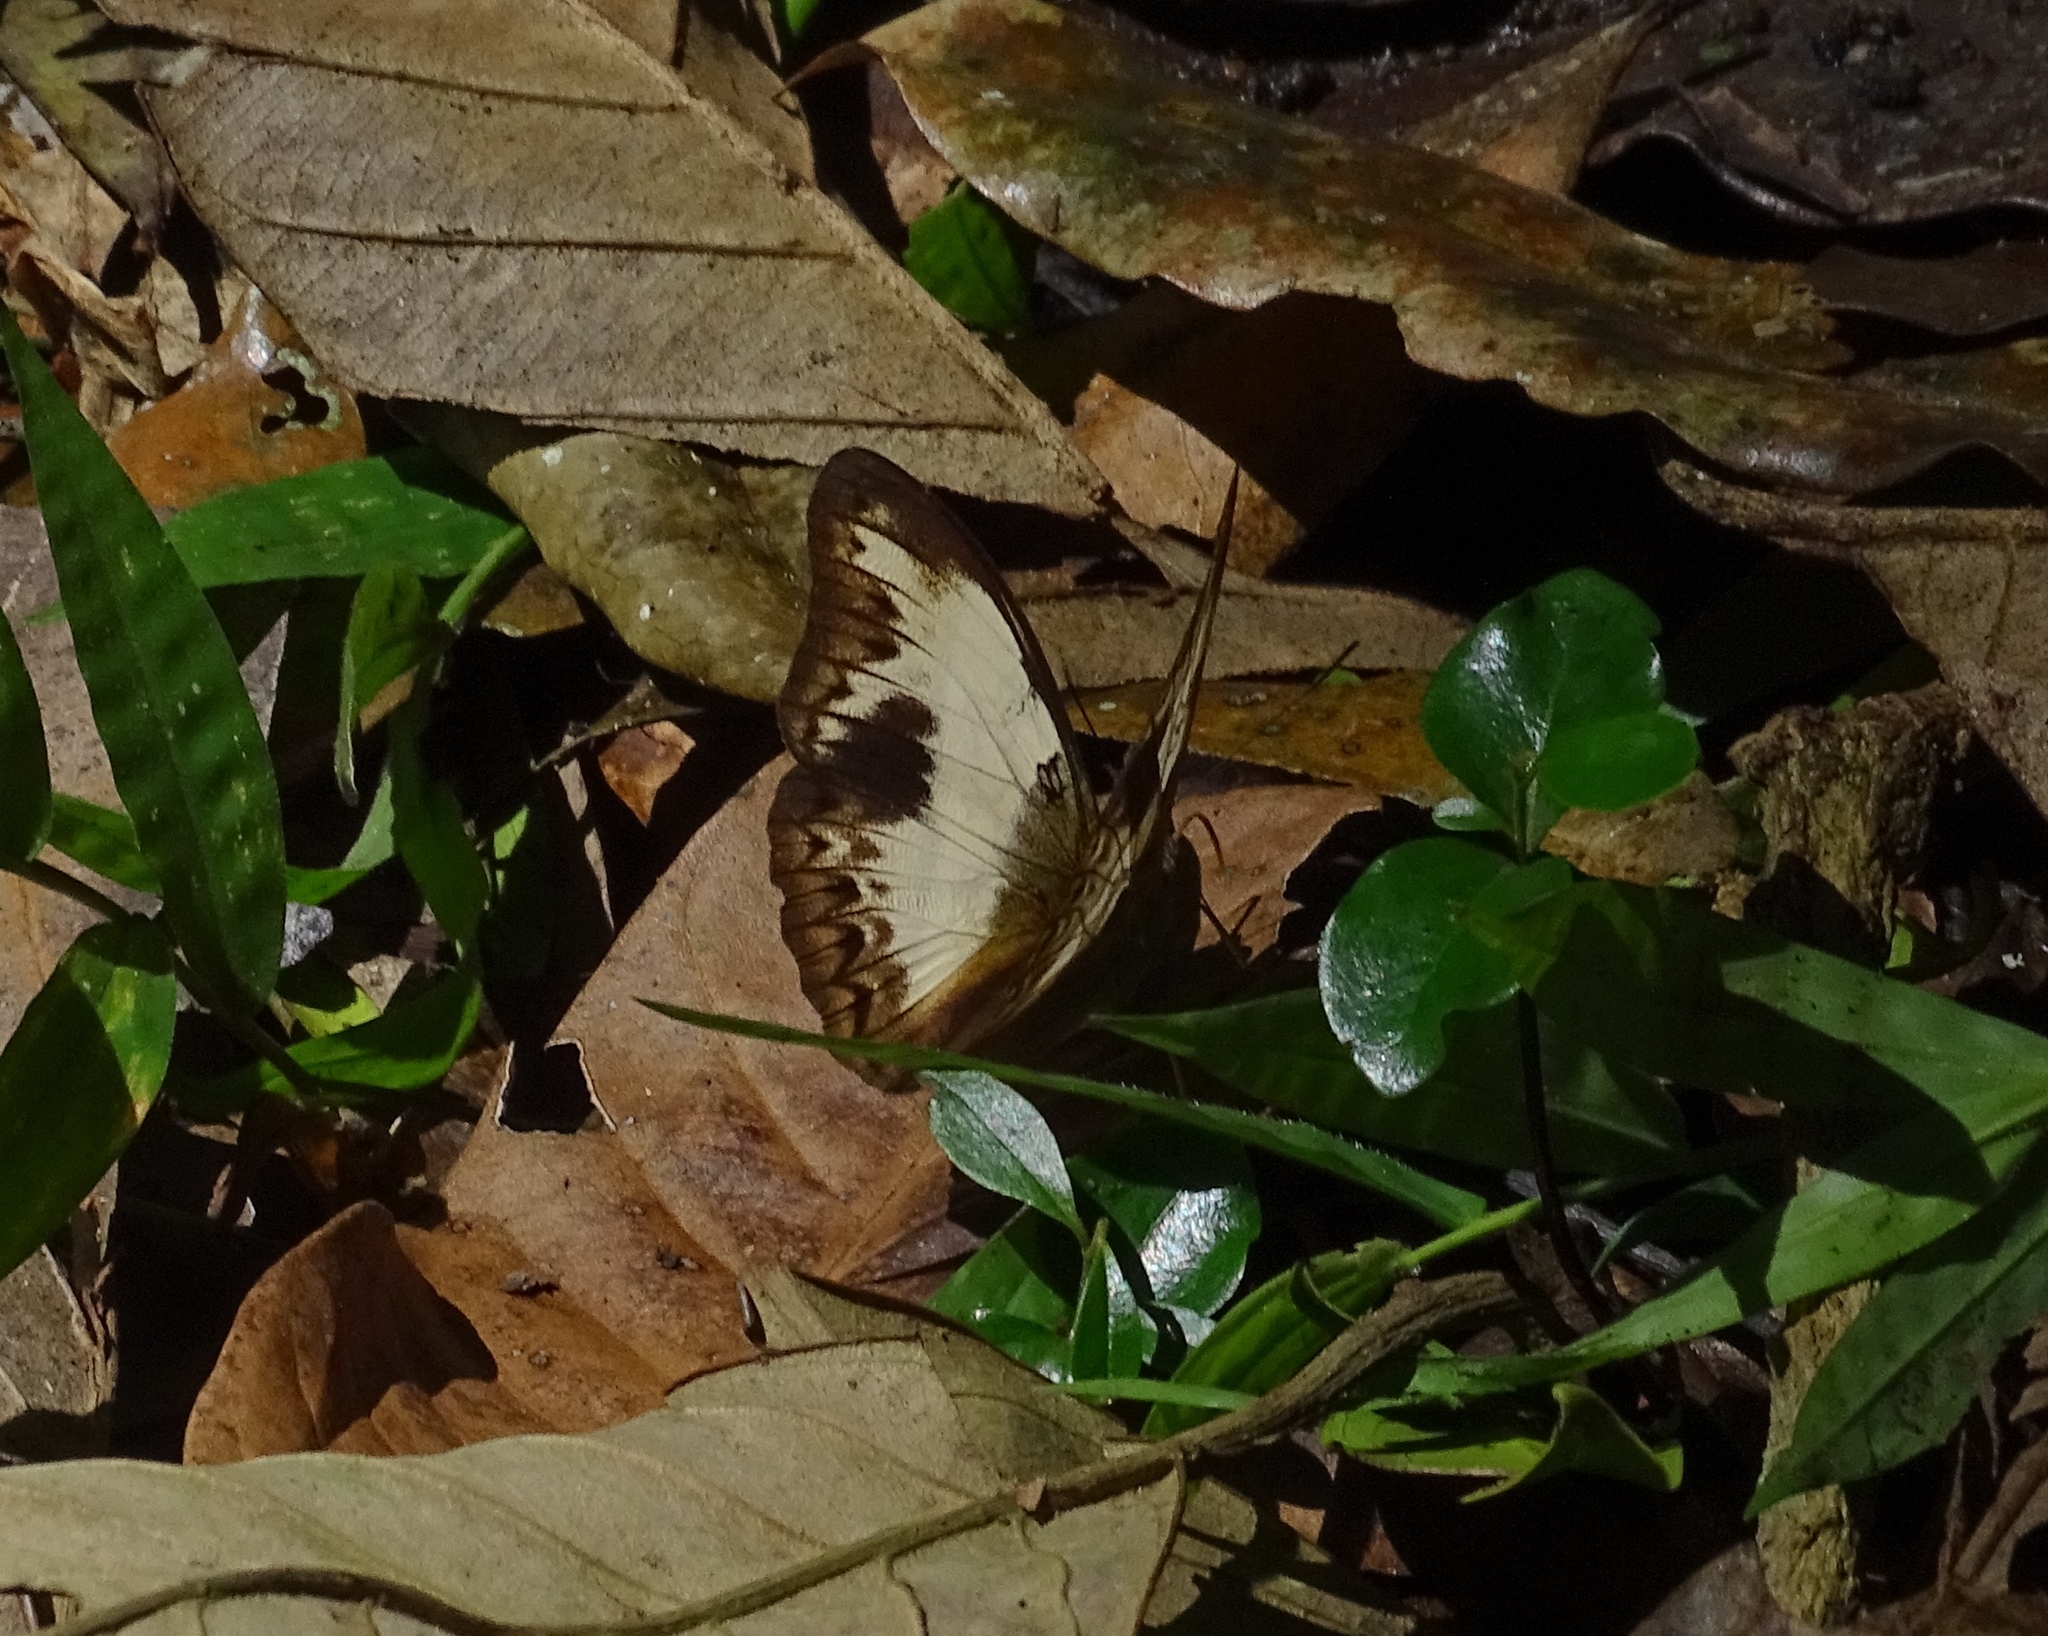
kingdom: Animalia
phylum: Arthropoda
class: Insecta
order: Lepidoptera
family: Nymphalidae
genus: Cymothoe
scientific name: Cymothoe zenkeri
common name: Zenker’s glider
